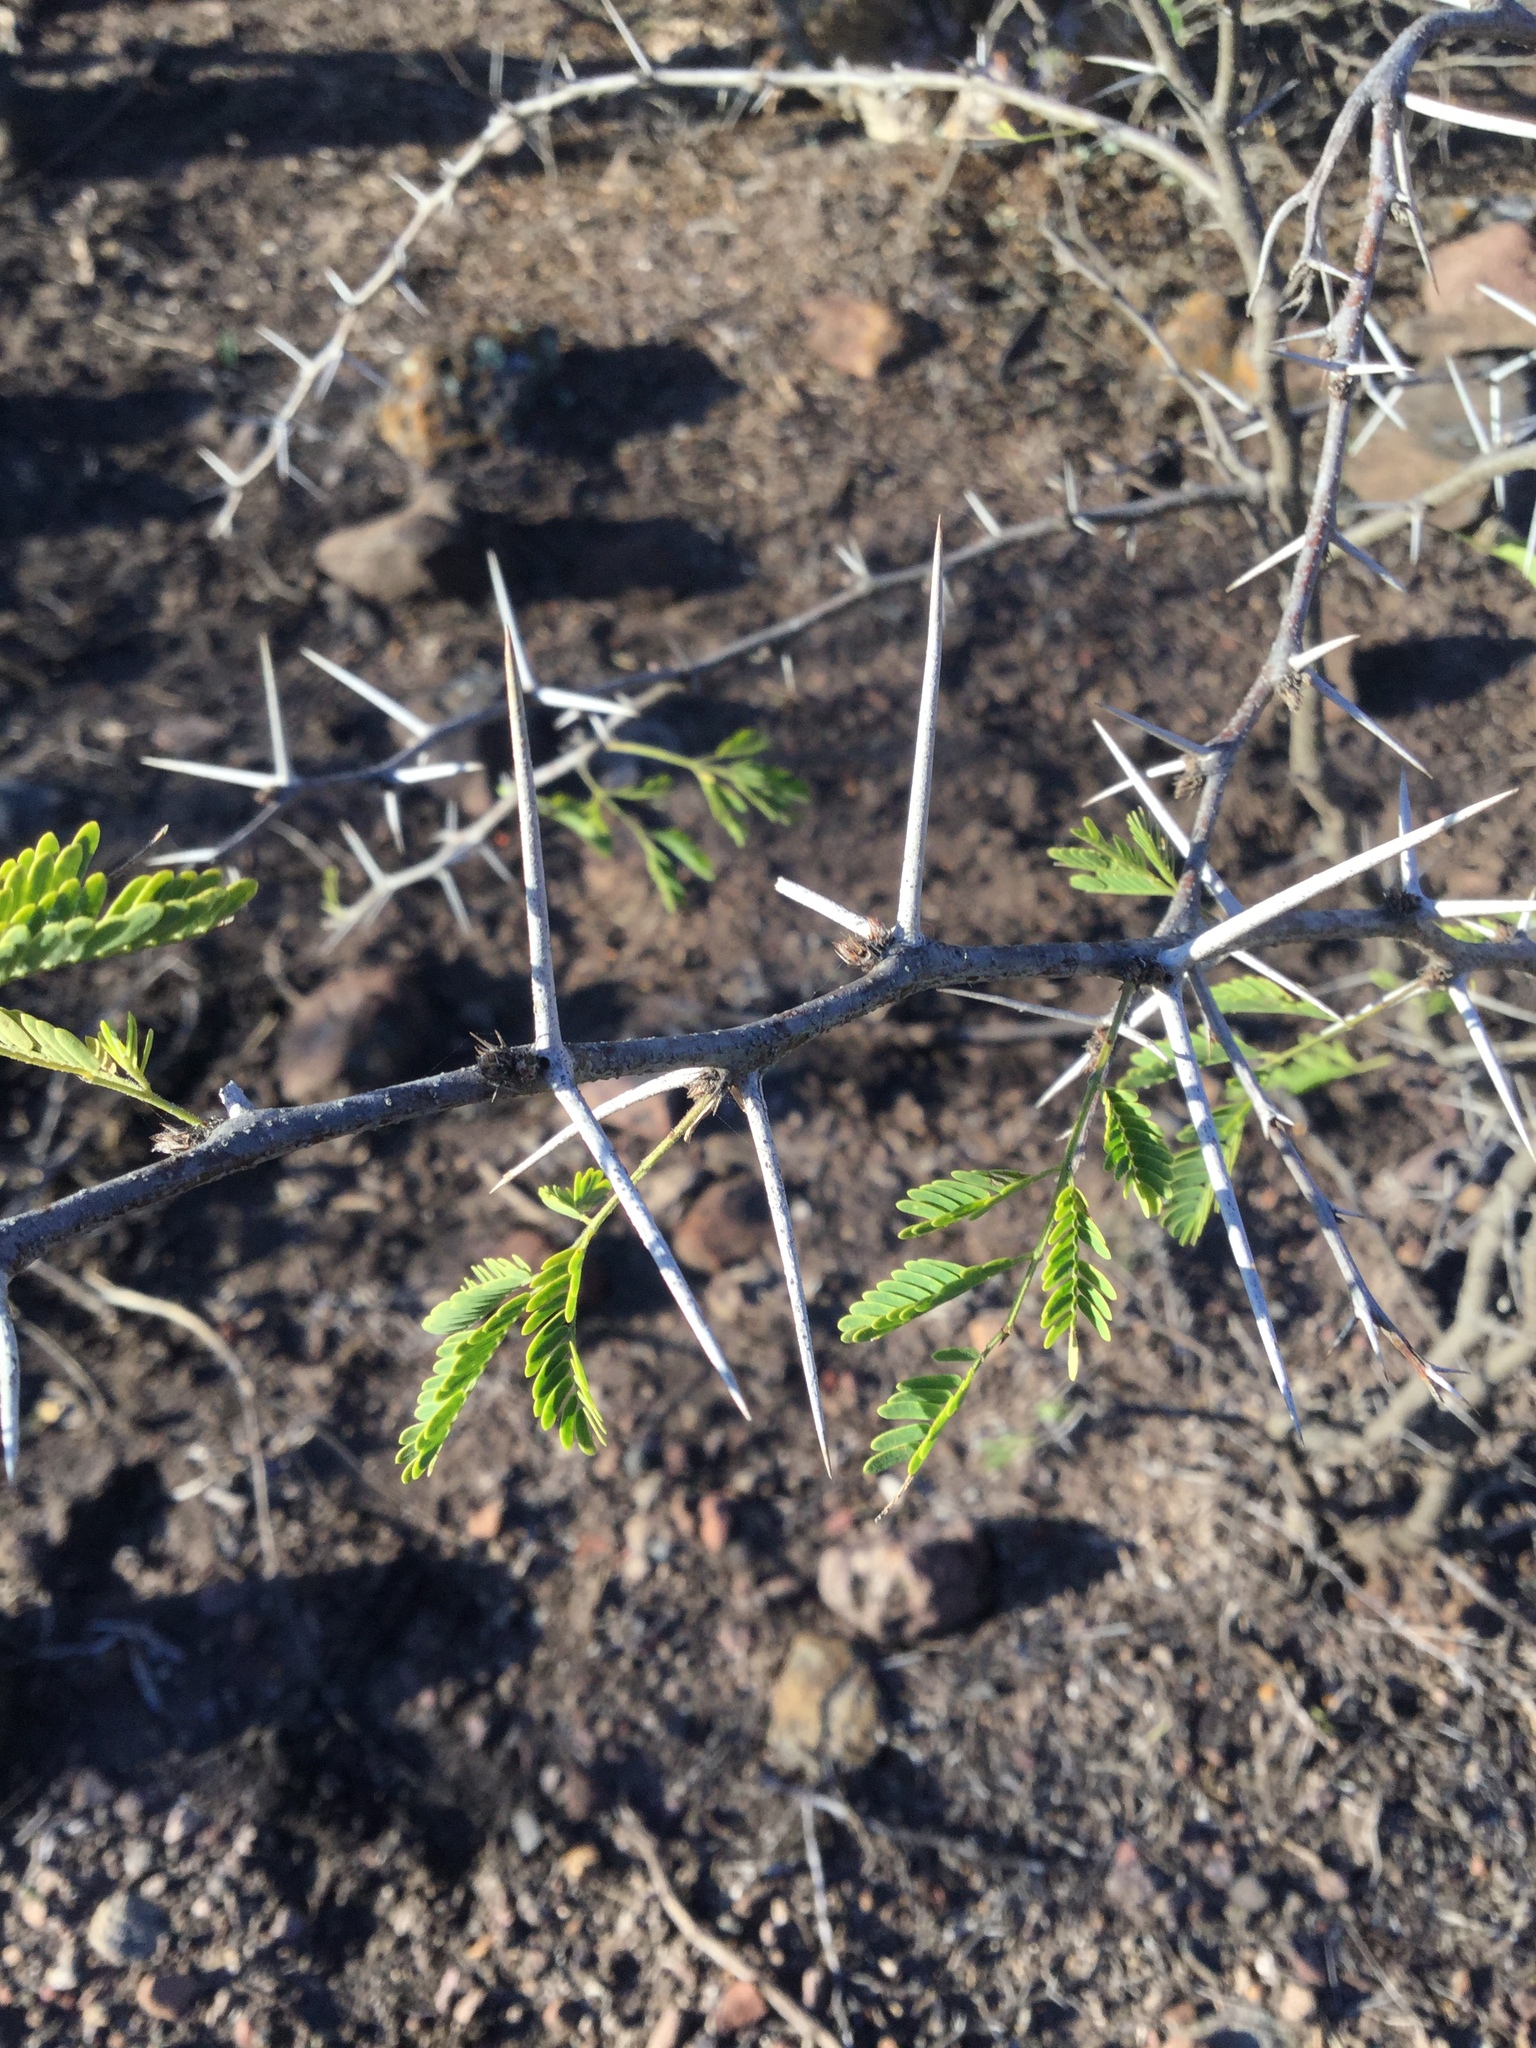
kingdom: Plantae
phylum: Tracheophyta
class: Magnoliopsida
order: Fabales
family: Fabaceae
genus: Vachellia
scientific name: Vachellia farnesiana
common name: Sweet acacia
